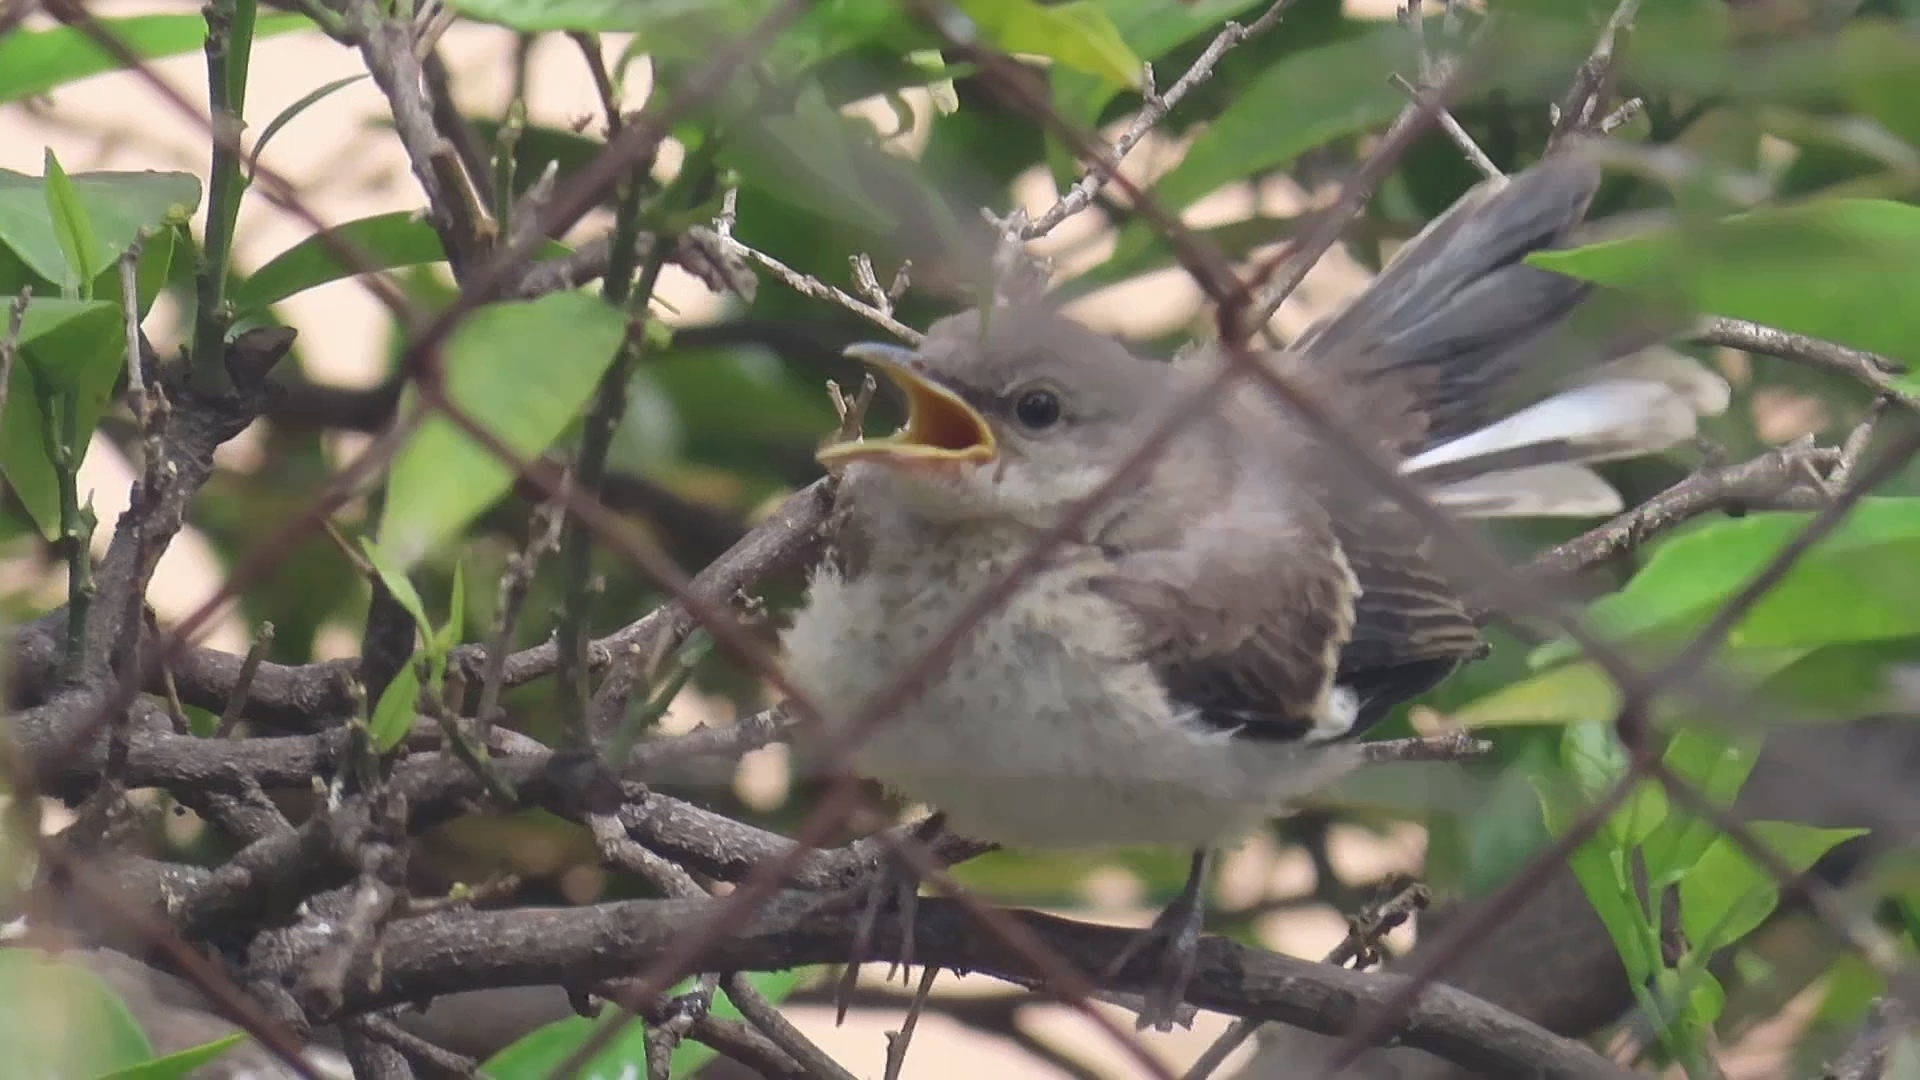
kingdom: Animalia
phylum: Chordata
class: Aves
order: Passeriformes
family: Mimidae
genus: Mimus
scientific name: Mimus polyglottos
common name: Northern mockingbird
